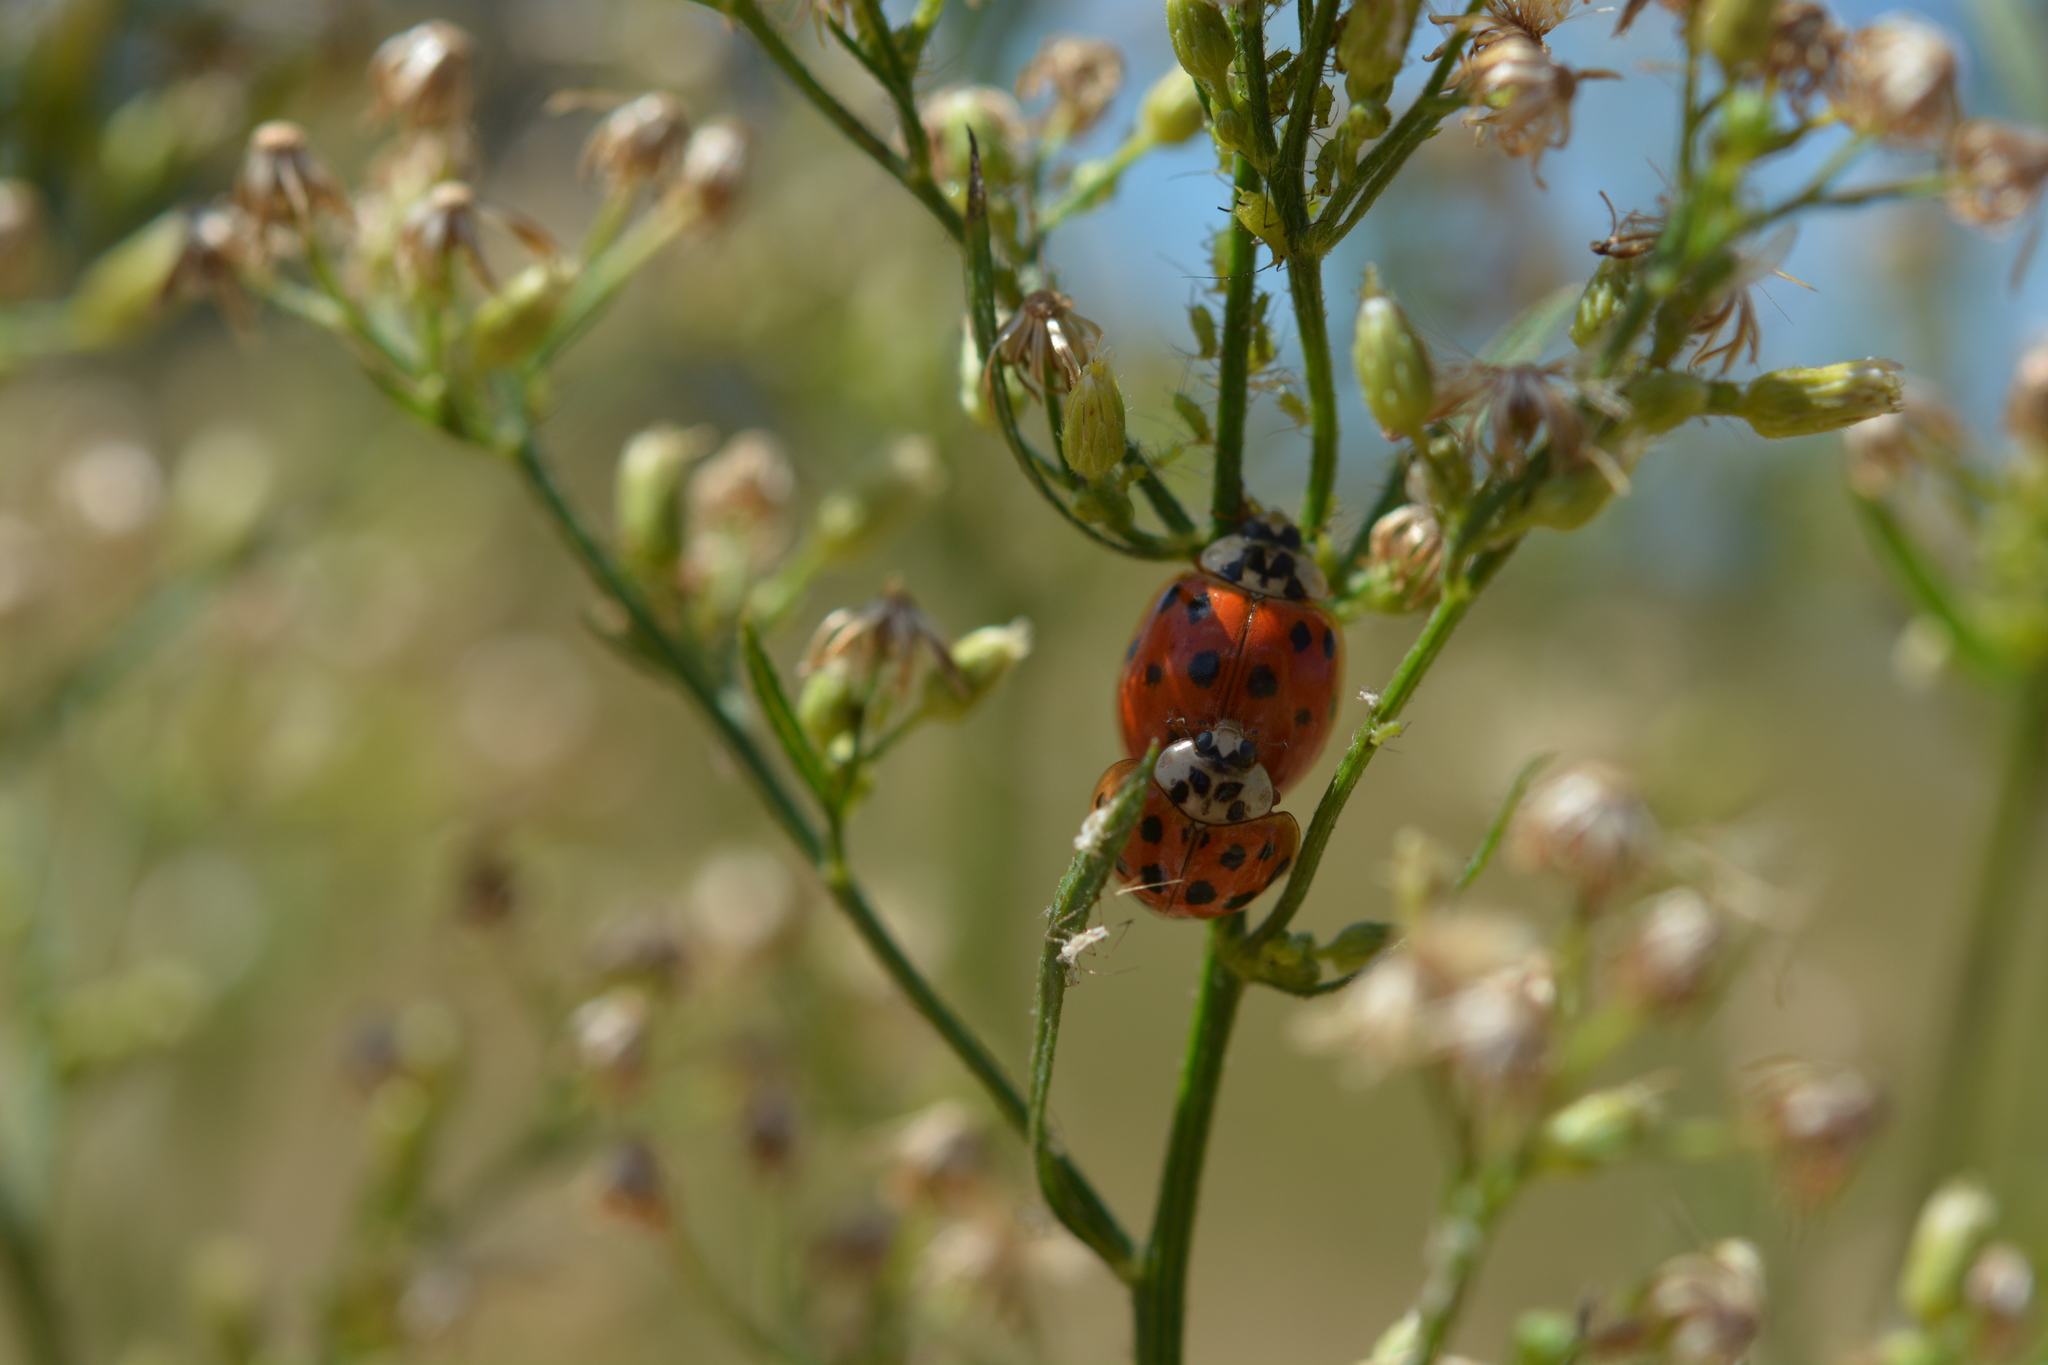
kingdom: Animalia
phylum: Arthropoda
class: Insecta
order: Coleoptera
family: Coccinellidae
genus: Harmonia
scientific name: Harmonia axyridis
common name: Harlequin ladybird
